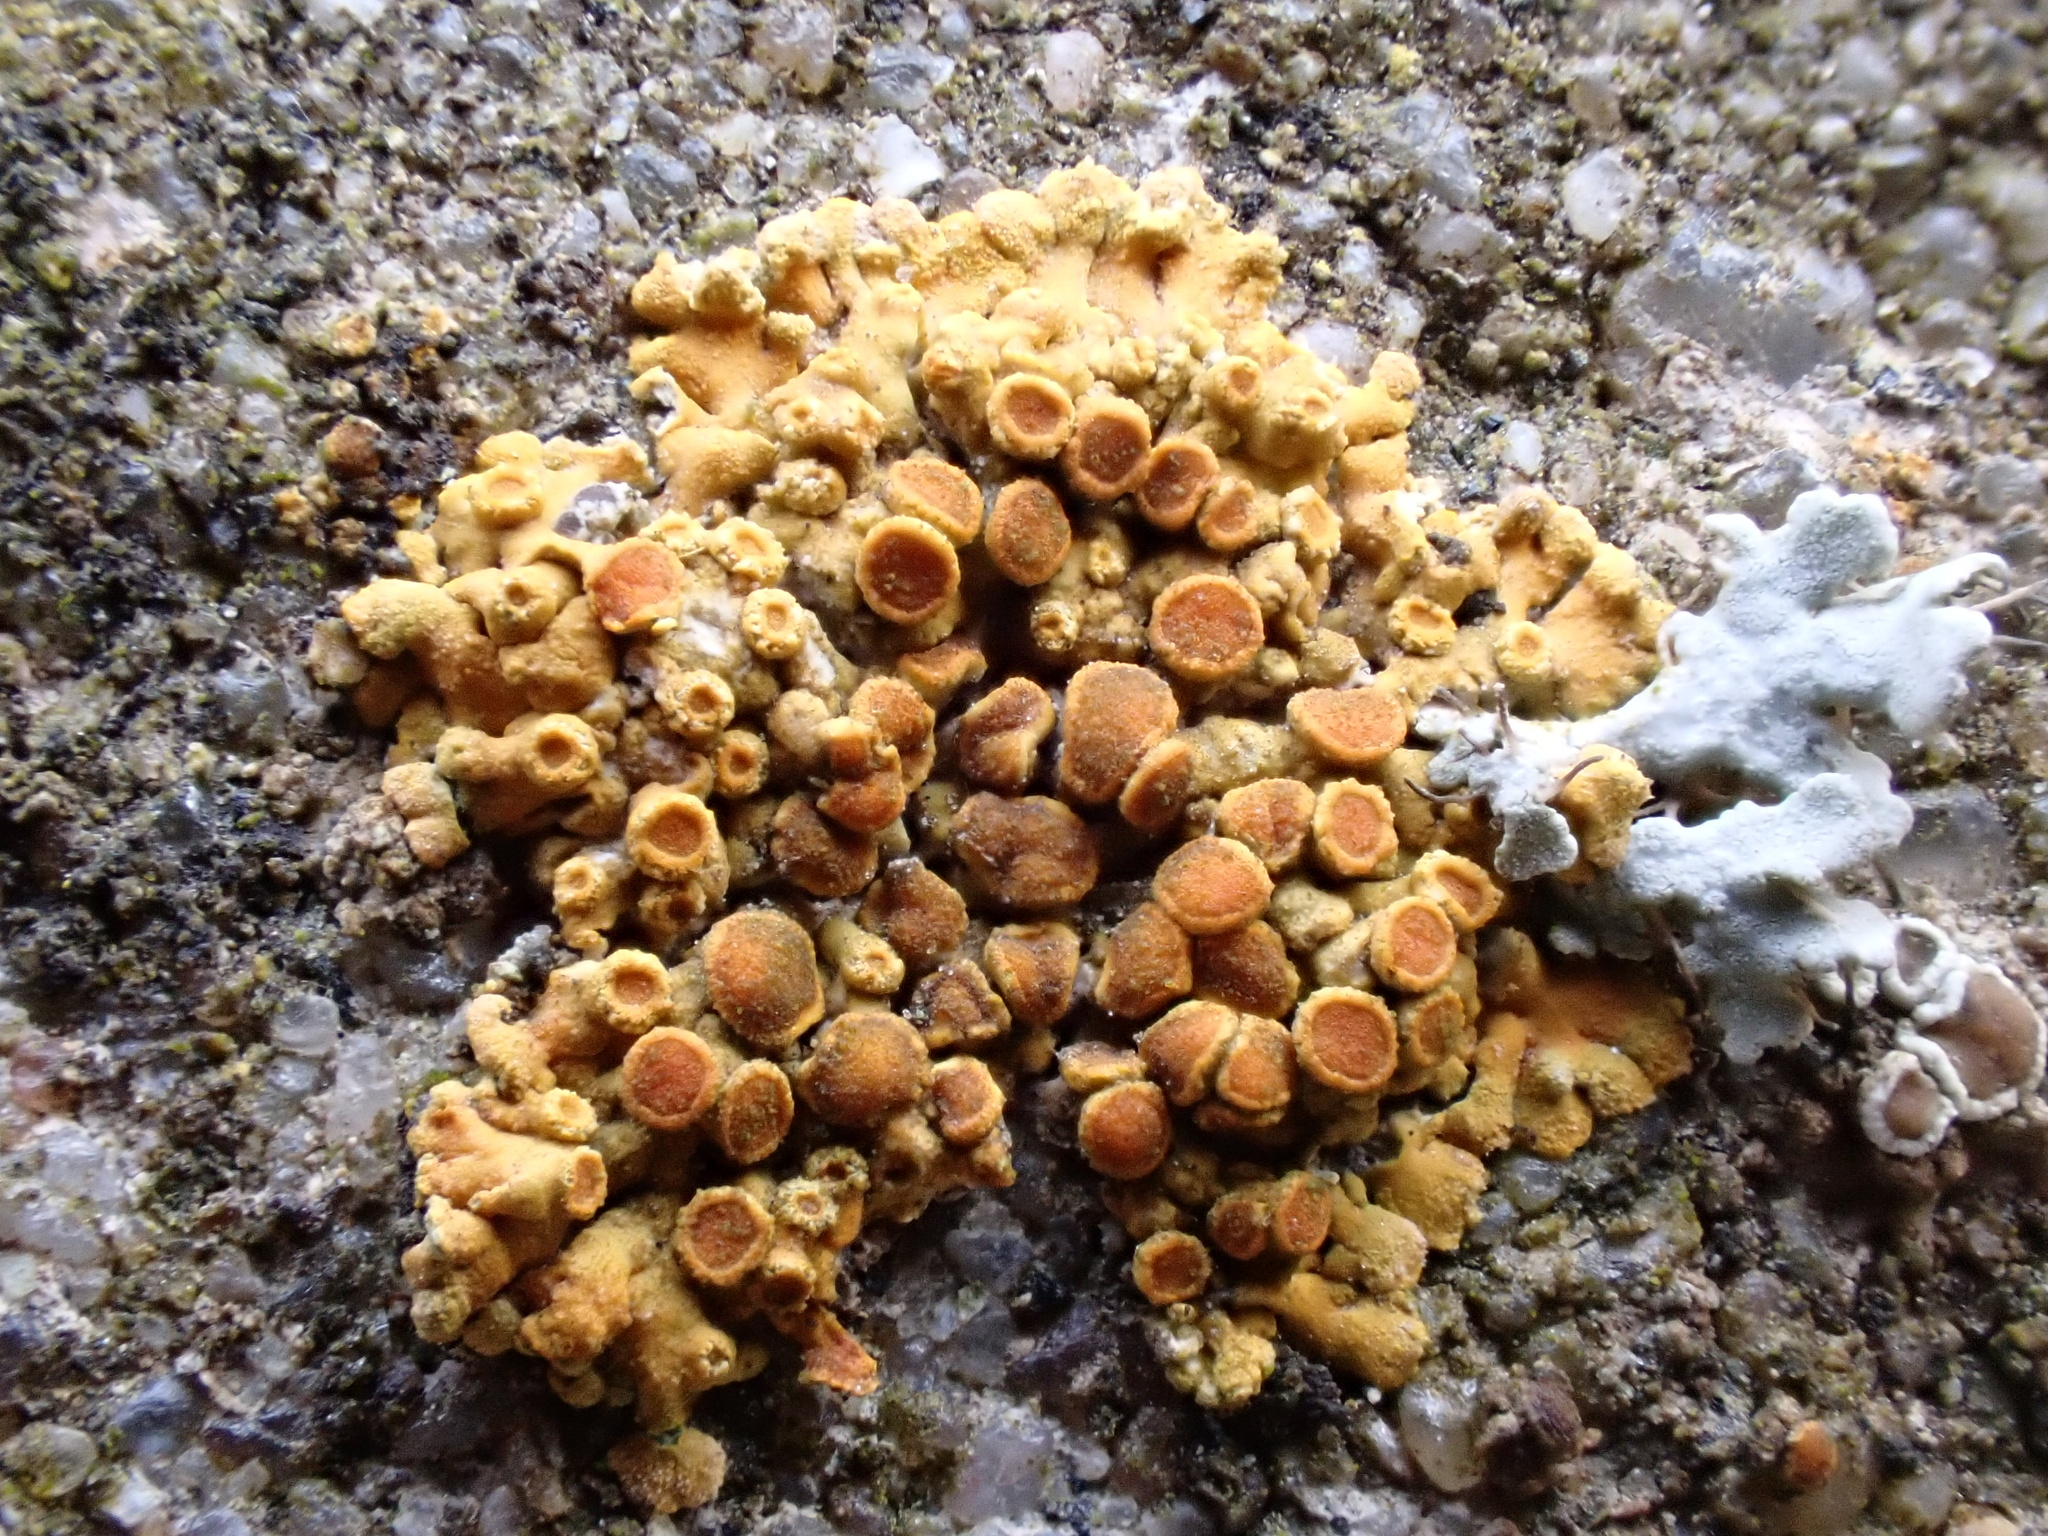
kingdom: Fungi
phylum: Ascomycota
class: Lecanoromycetes
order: Teloschistales
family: Teloschistaceae
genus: Calogaya
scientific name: Calogaya pusilla
